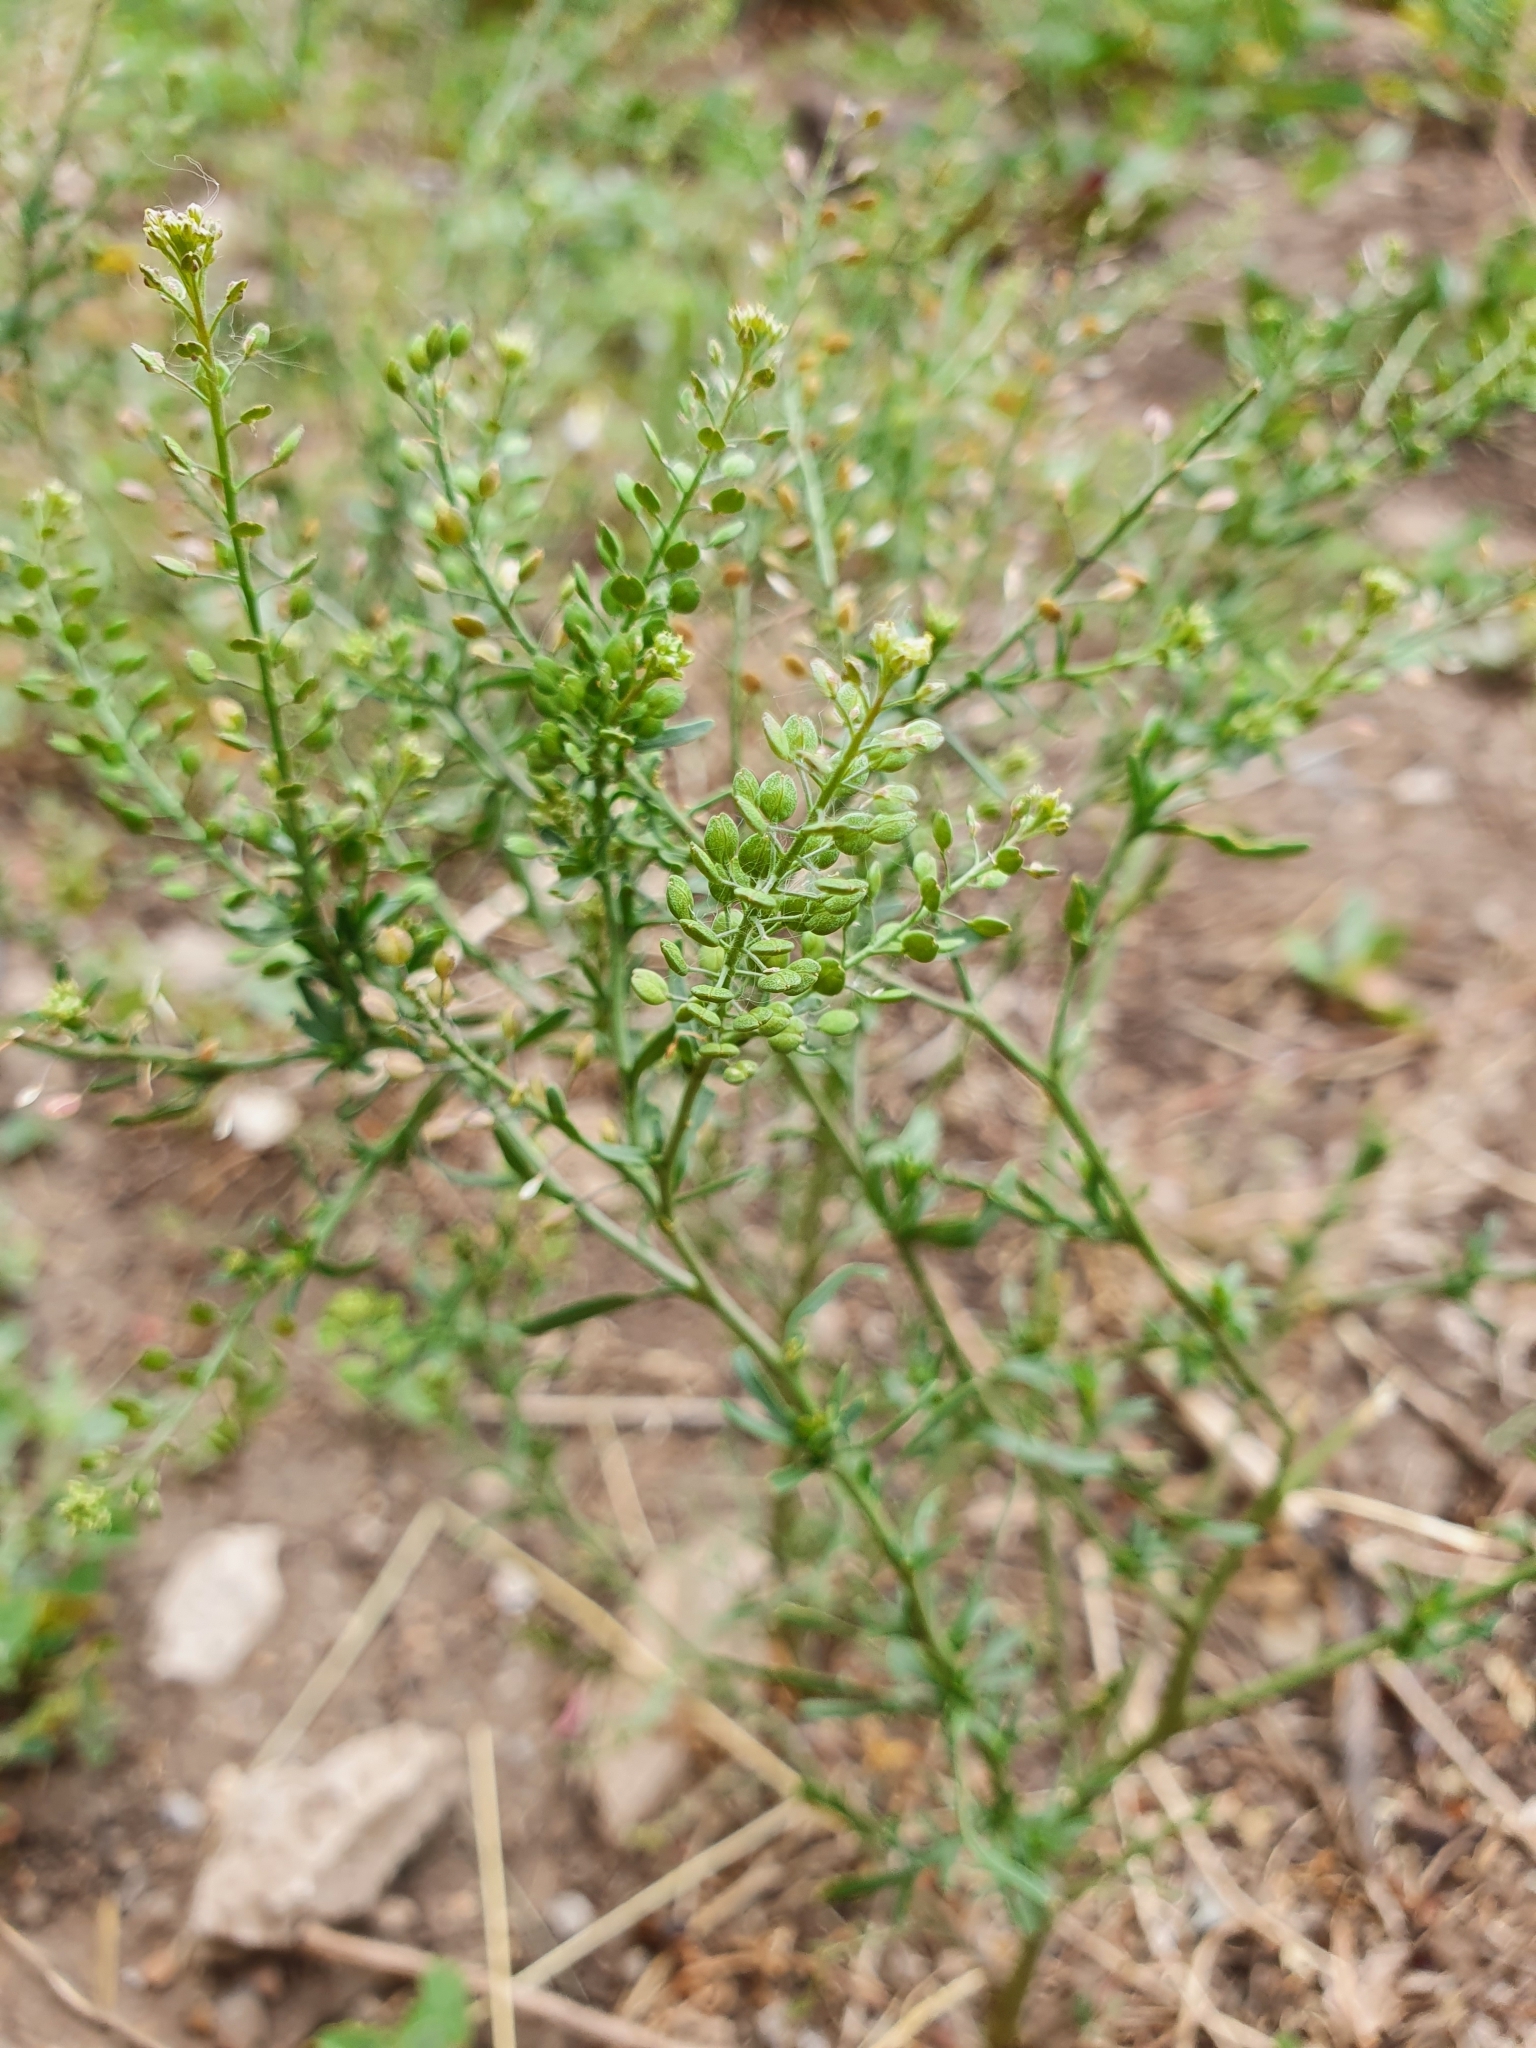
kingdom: Plantae
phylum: Tracheophyta
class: Magnoliopsida
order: Brassicales
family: Brassicaceae
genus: Lepidium
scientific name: Lepidium ruderale
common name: Narrow-leaved pepperwort
